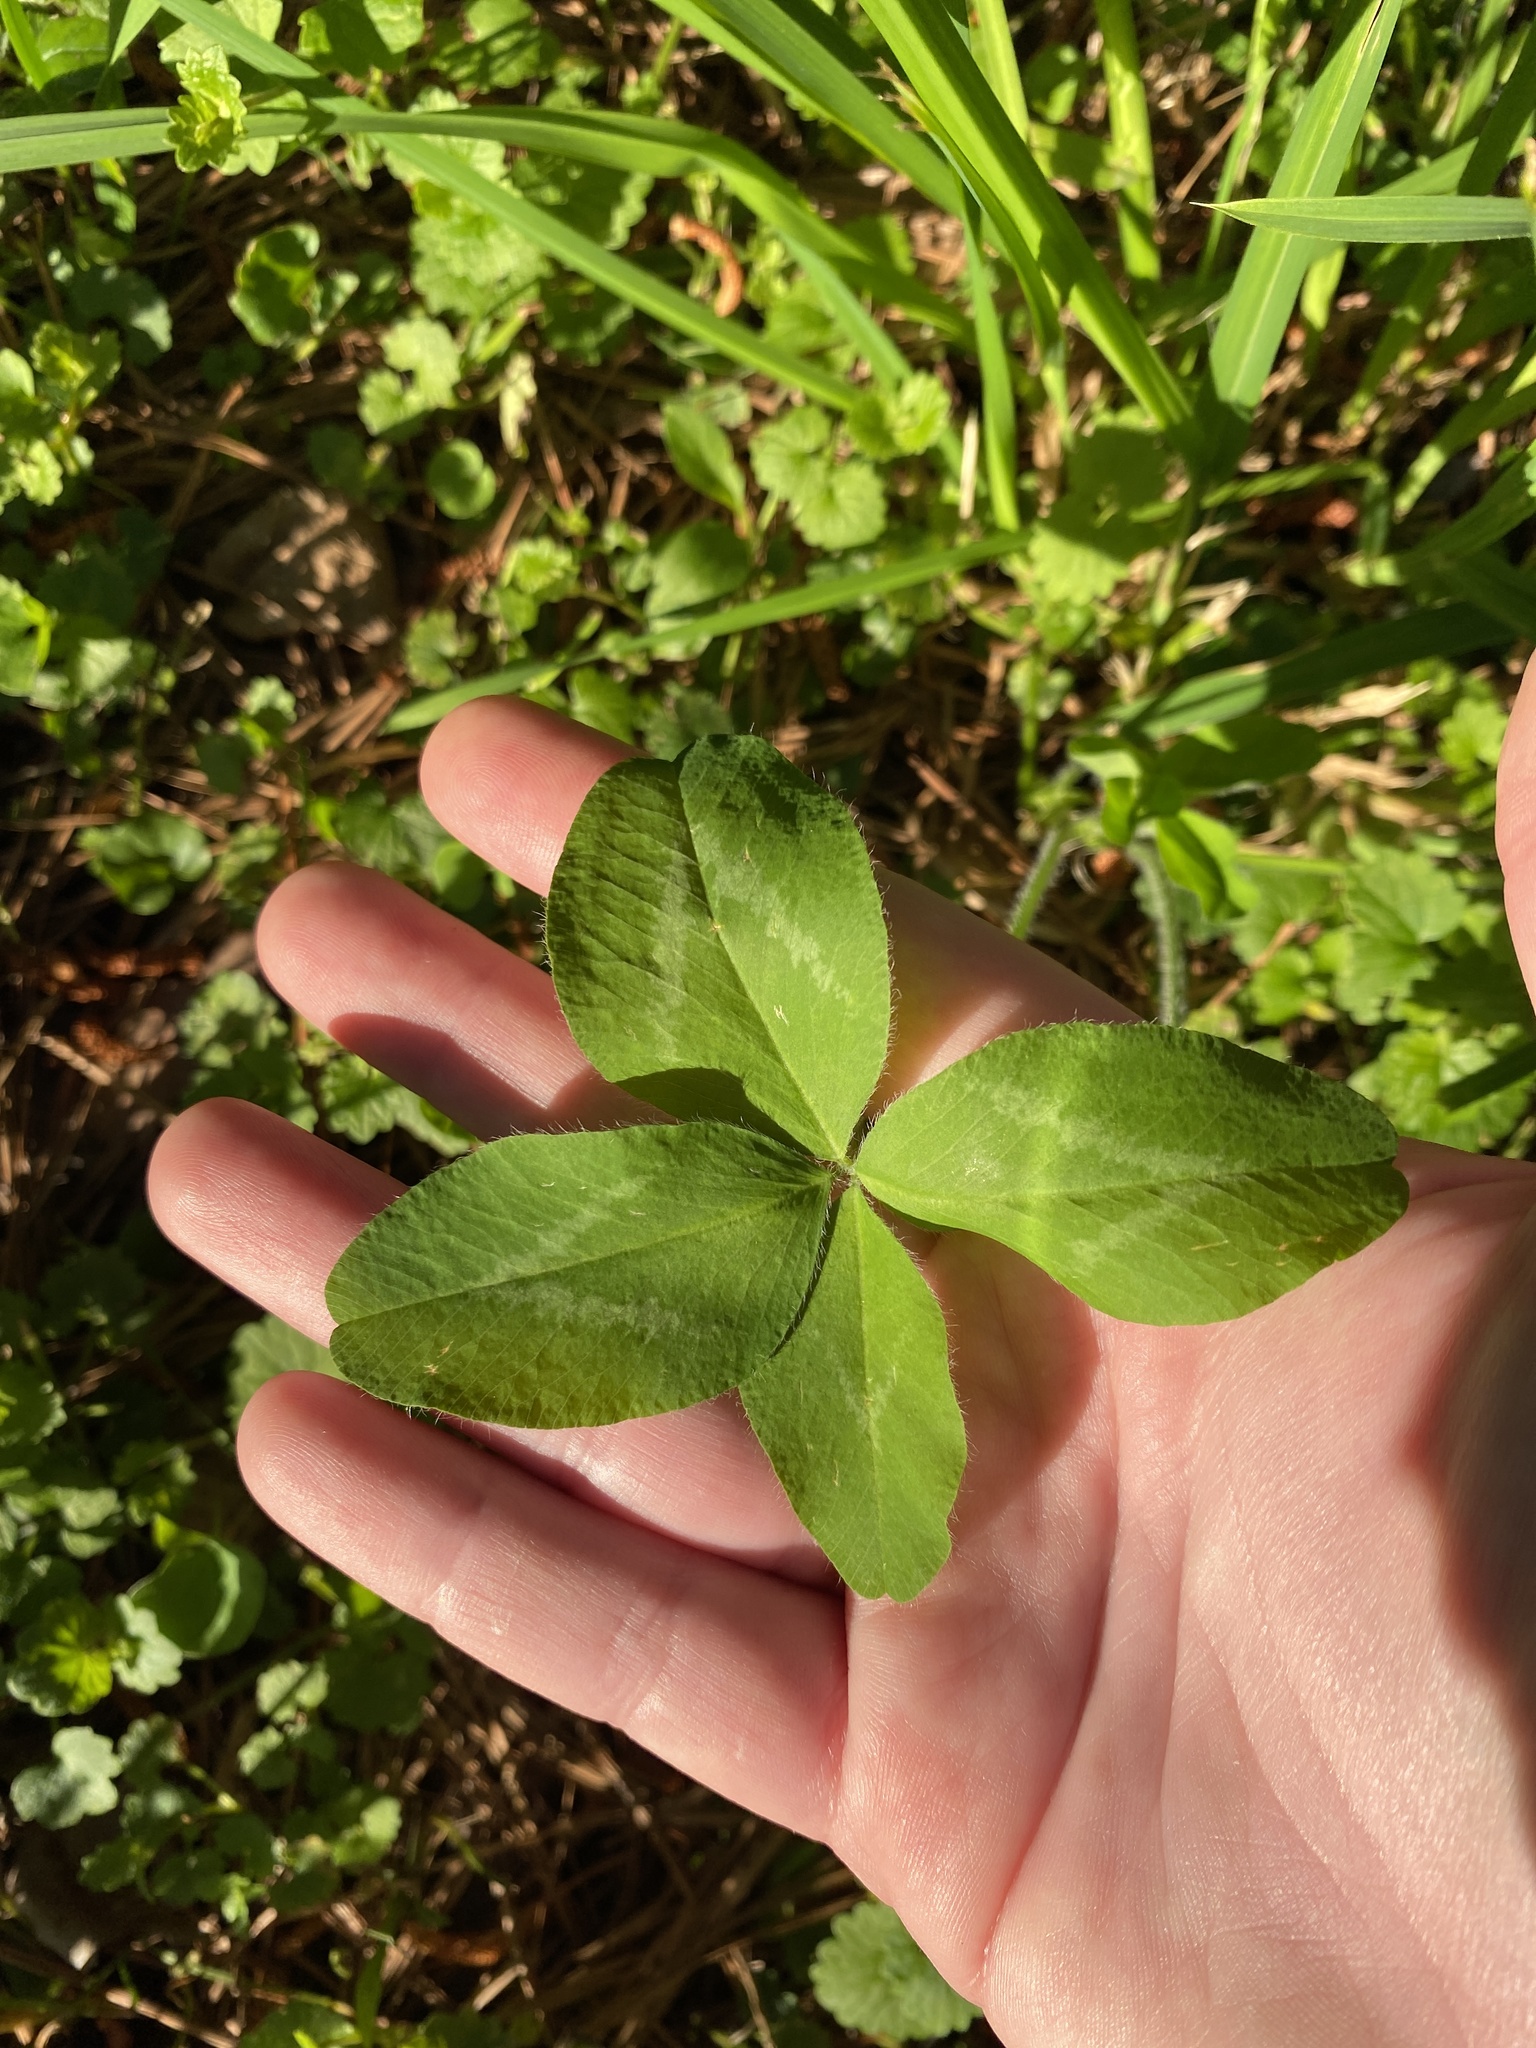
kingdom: Plantae
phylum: Tracheophyta
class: Magnoliopsida
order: Fabales
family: Fabaceae
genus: Trifolium
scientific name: Trifolium pratense
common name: Red clover
